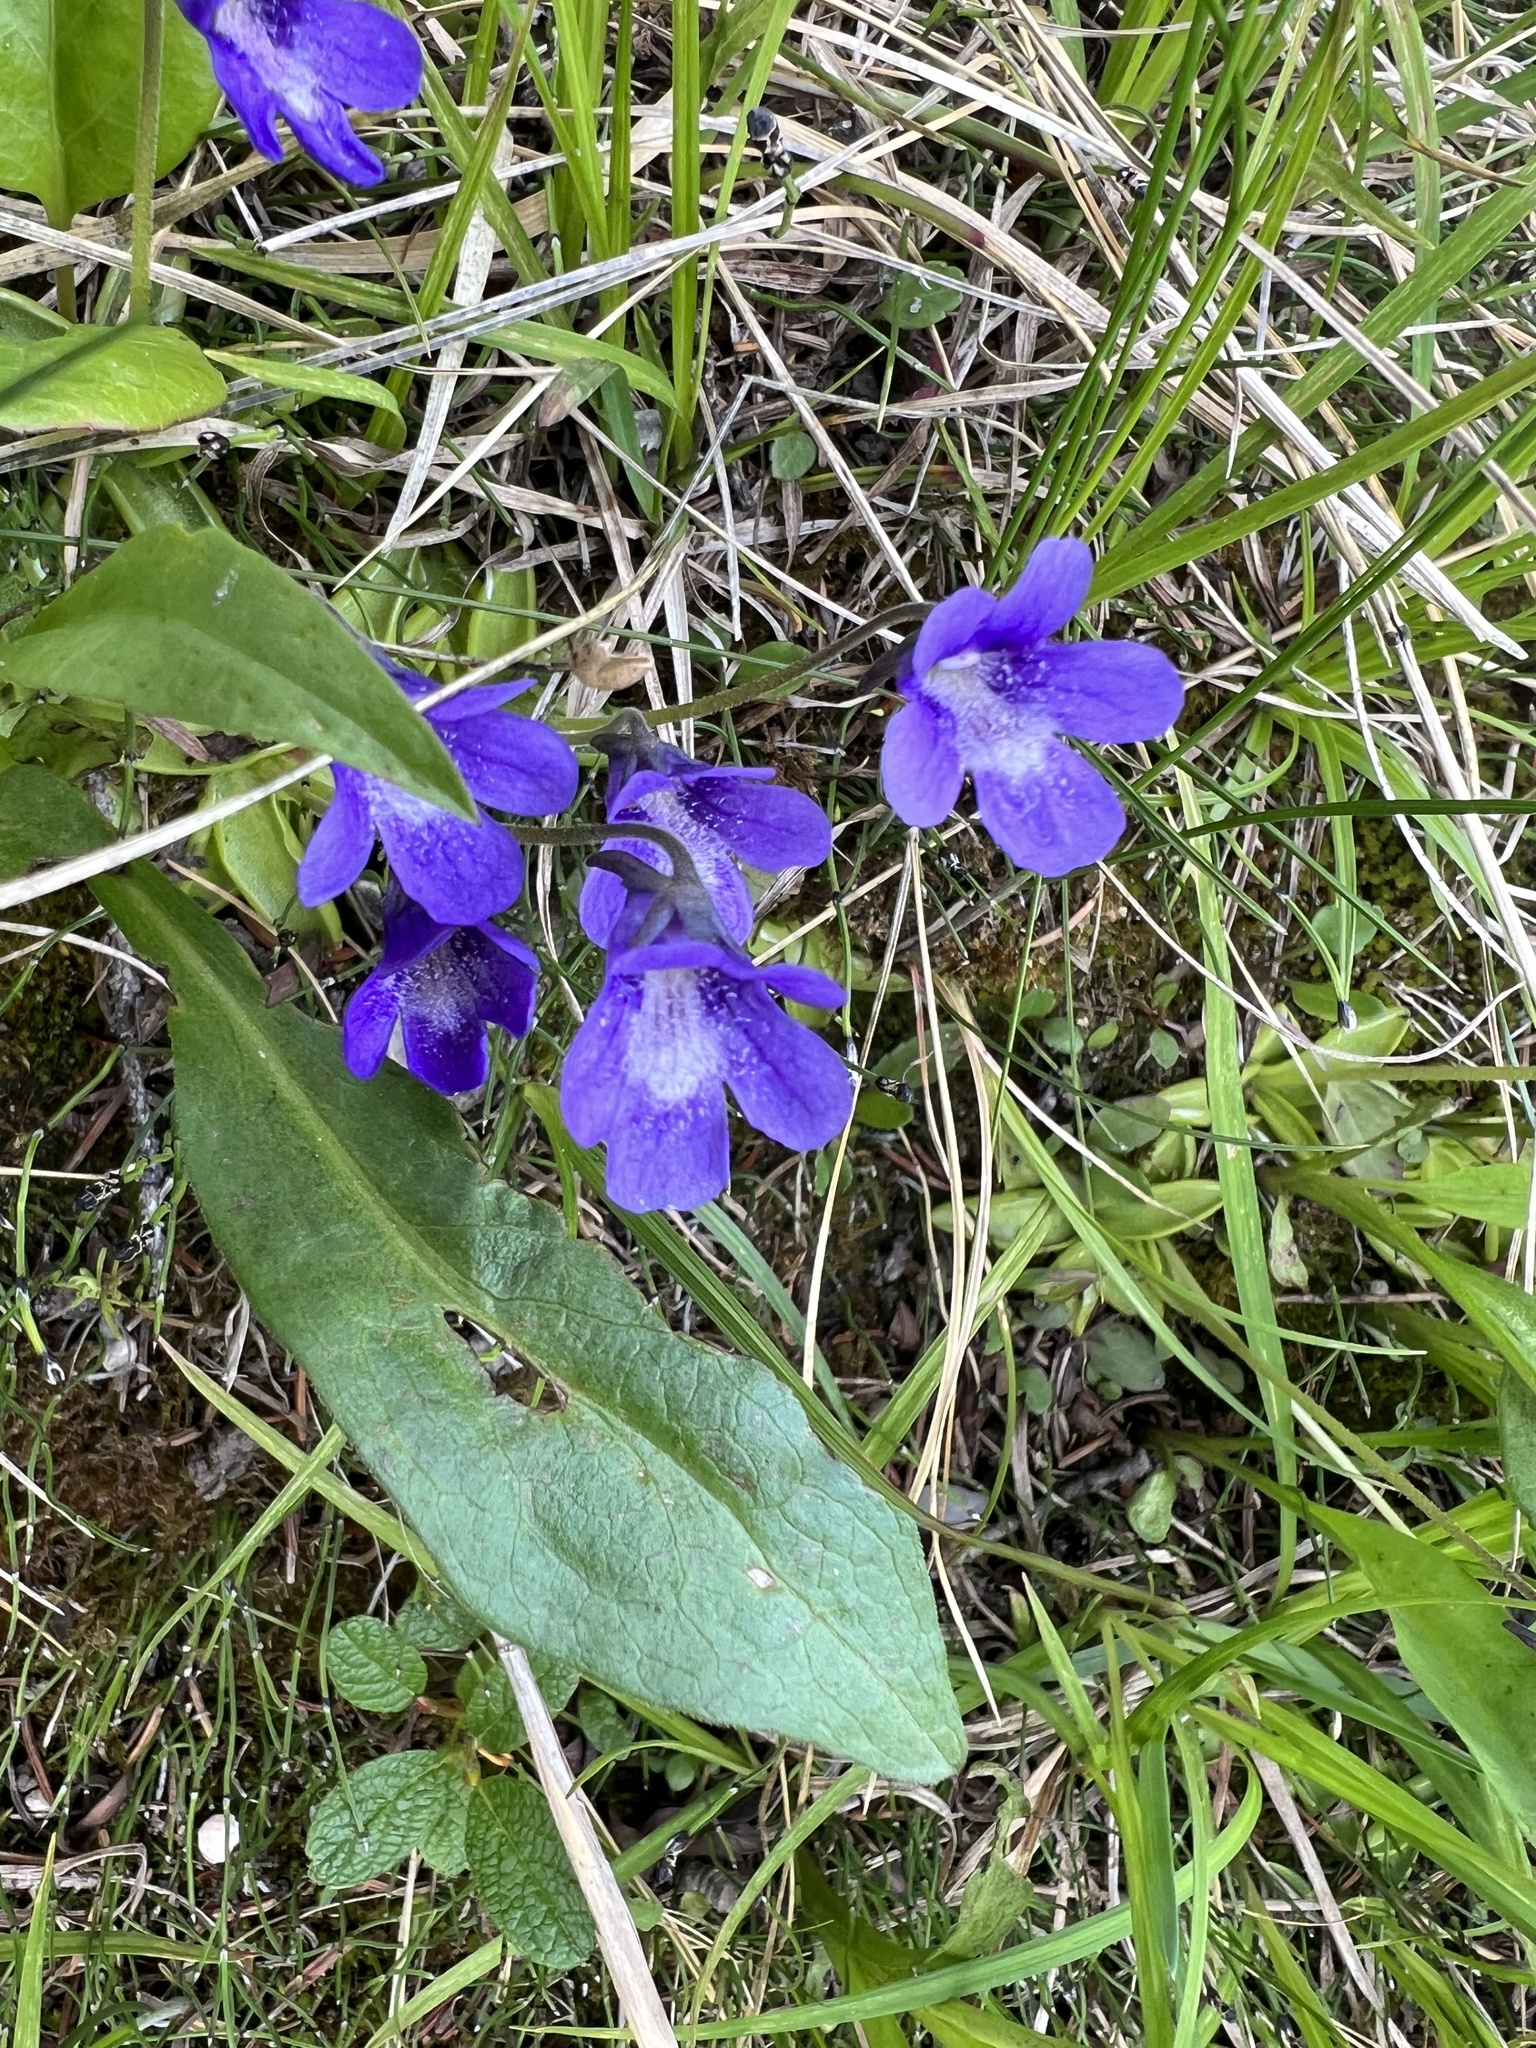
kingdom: Plantae
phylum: Tracheophyta
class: Magnoliopsida
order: Lamiales
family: Lentibulariaceae
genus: Pinguicula
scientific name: Pinguicula vulgaris
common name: Common butterwort
